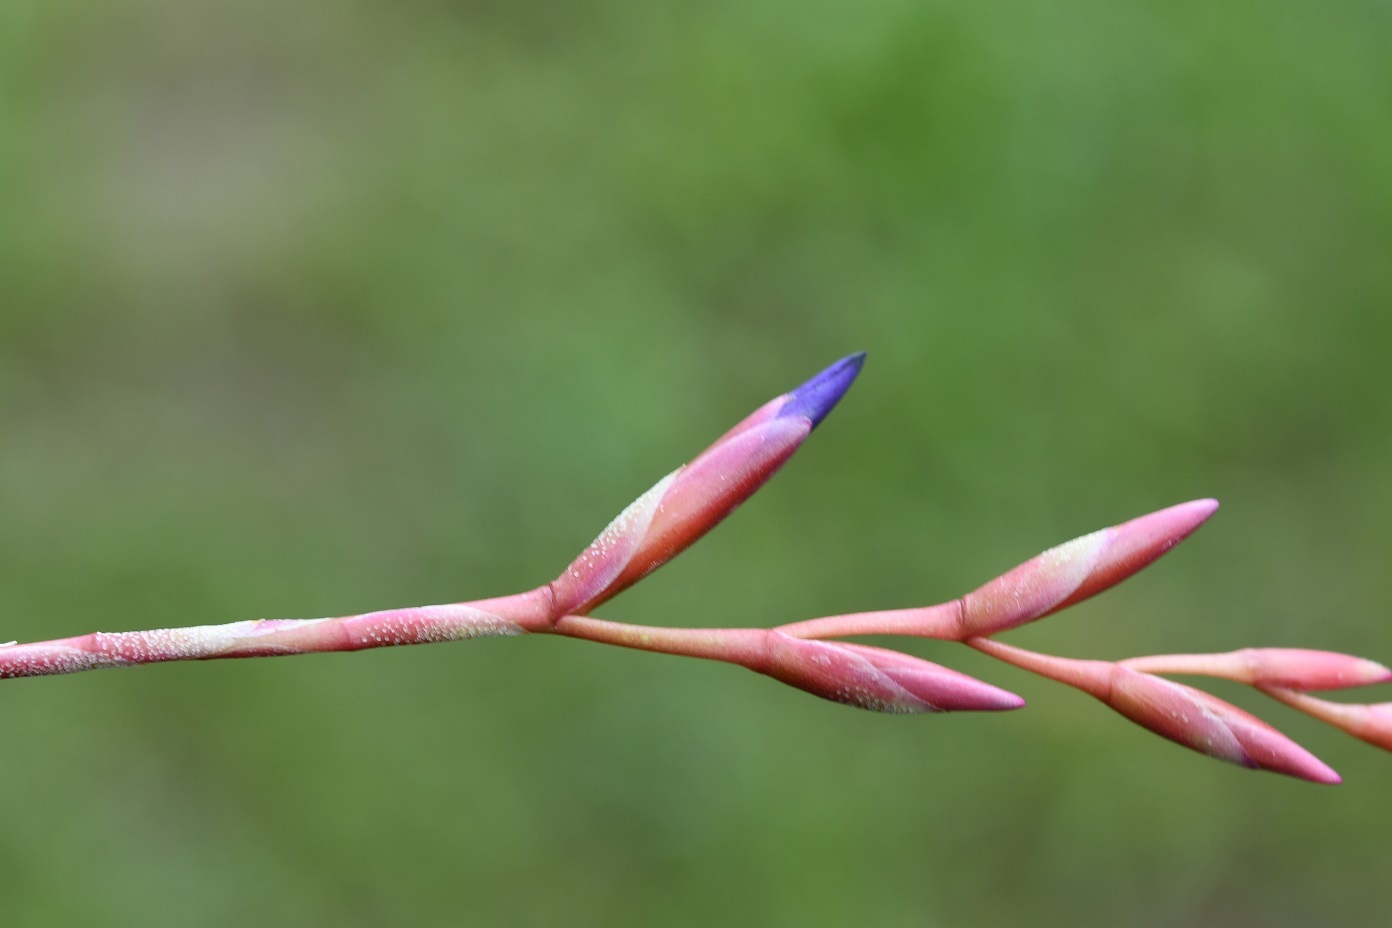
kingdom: Plantae
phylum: Tracheophyta
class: Liliopsida
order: Poales
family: Bromeliaceae
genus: Tillandsia
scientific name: Tillandsia fuchsii
